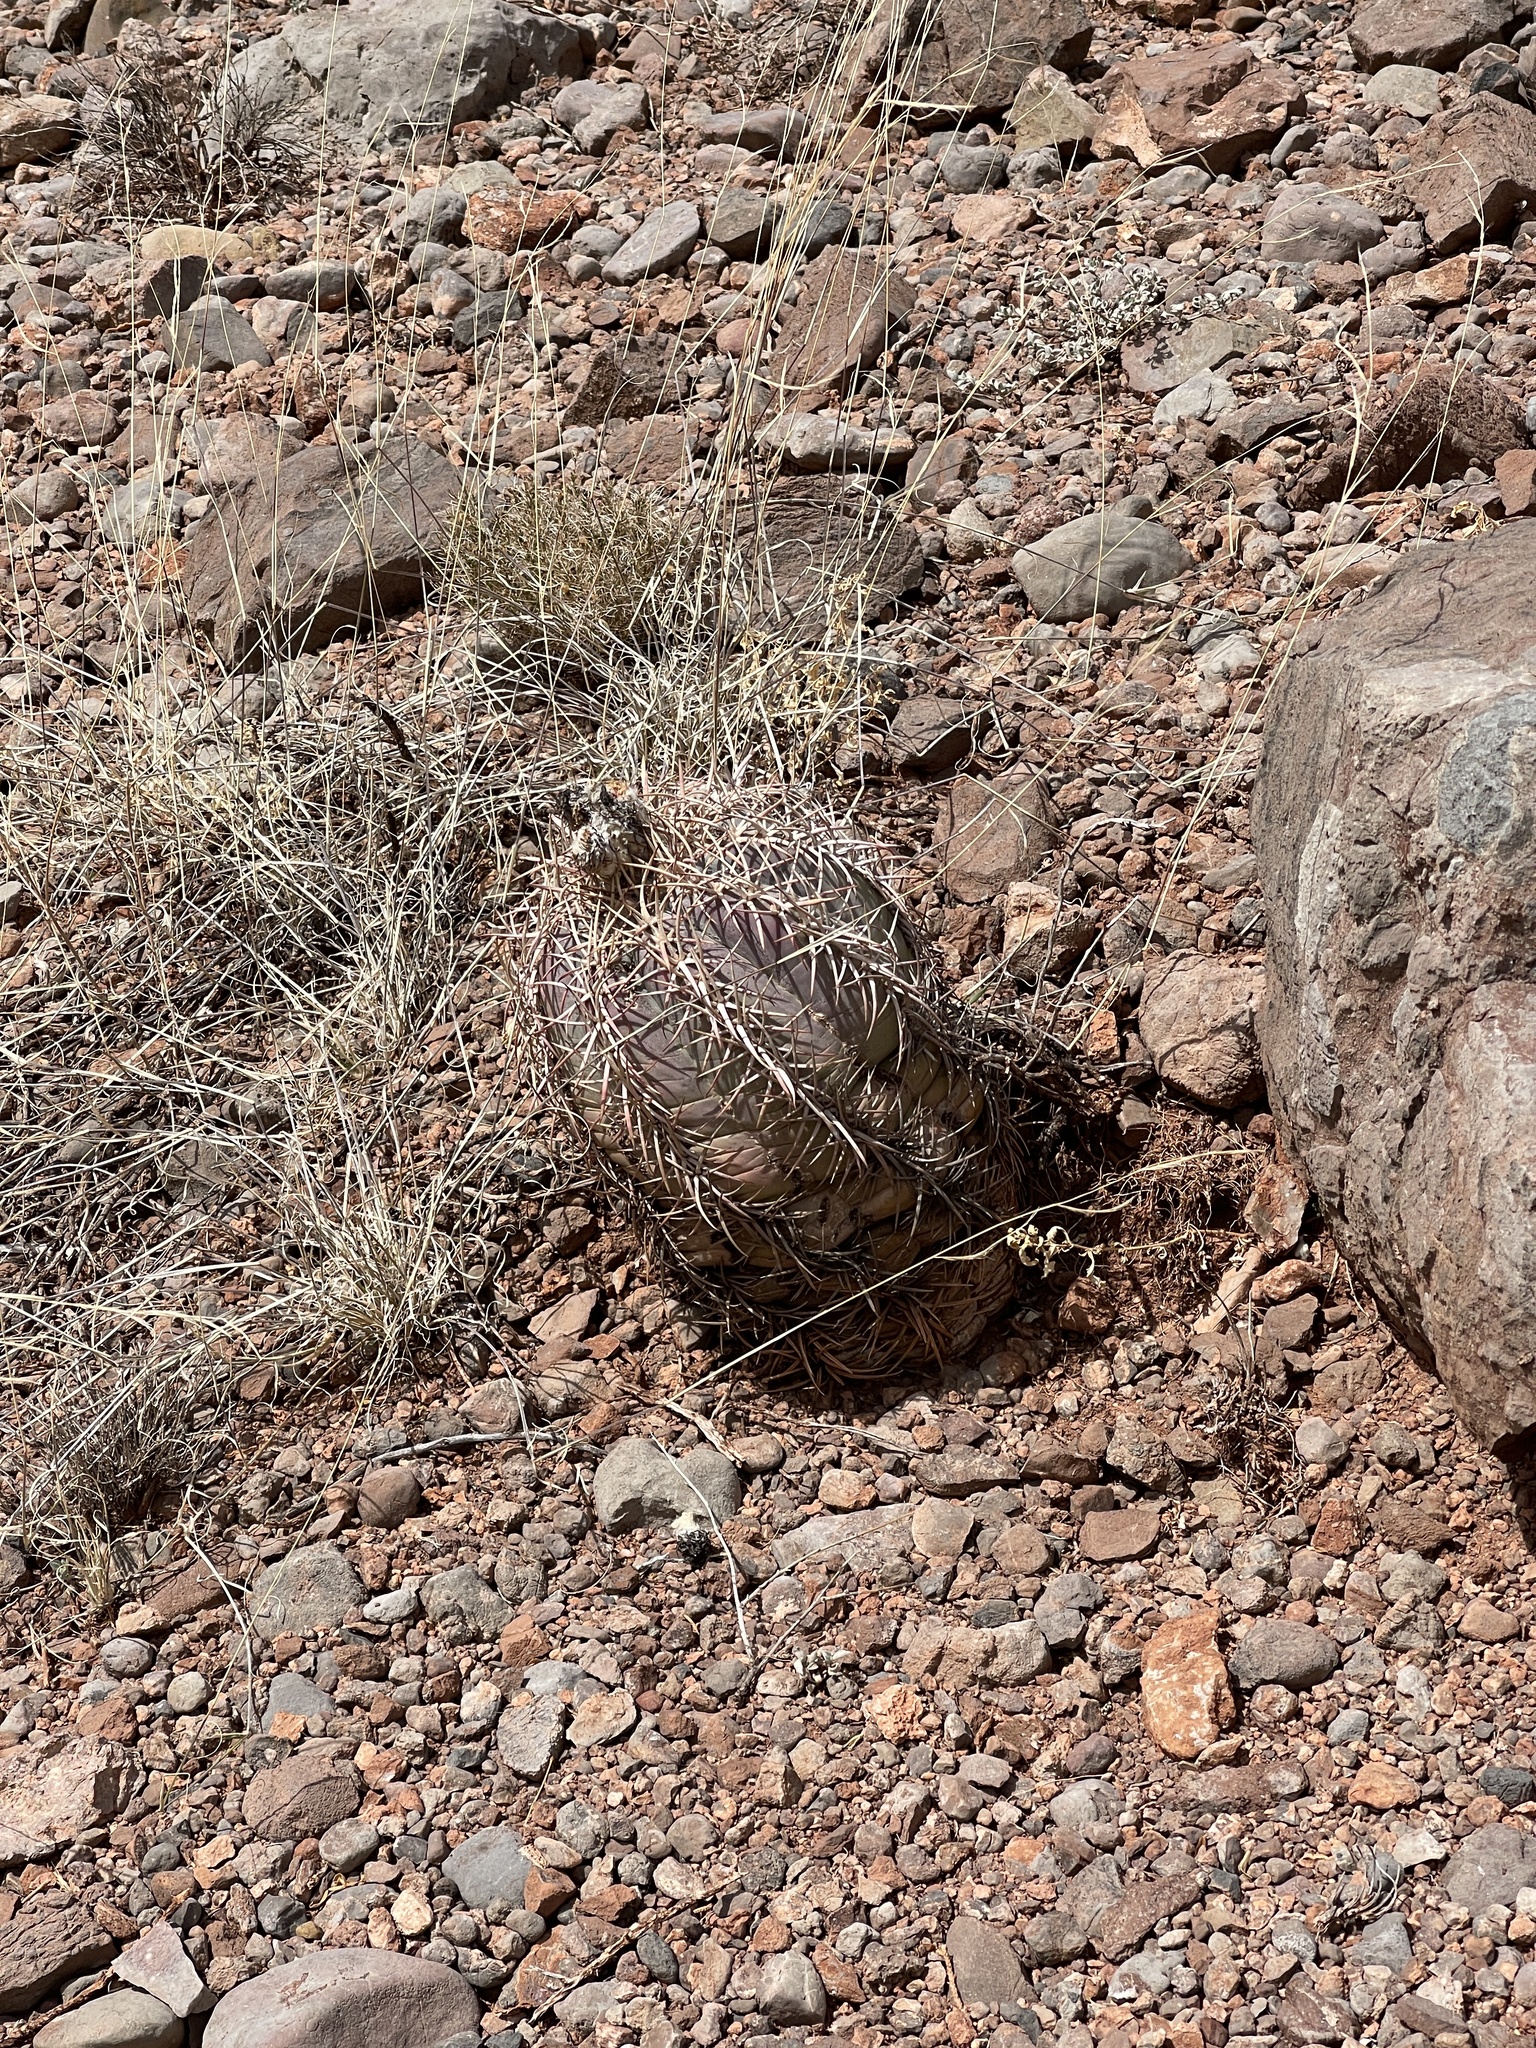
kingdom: Plantae
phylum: Tracheophyta
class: Magnoliopsida
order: Caryophyllales
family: Cactaceae
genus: Echinocactus
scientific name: Echinocactus horizonthalonius
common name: Devilshead
